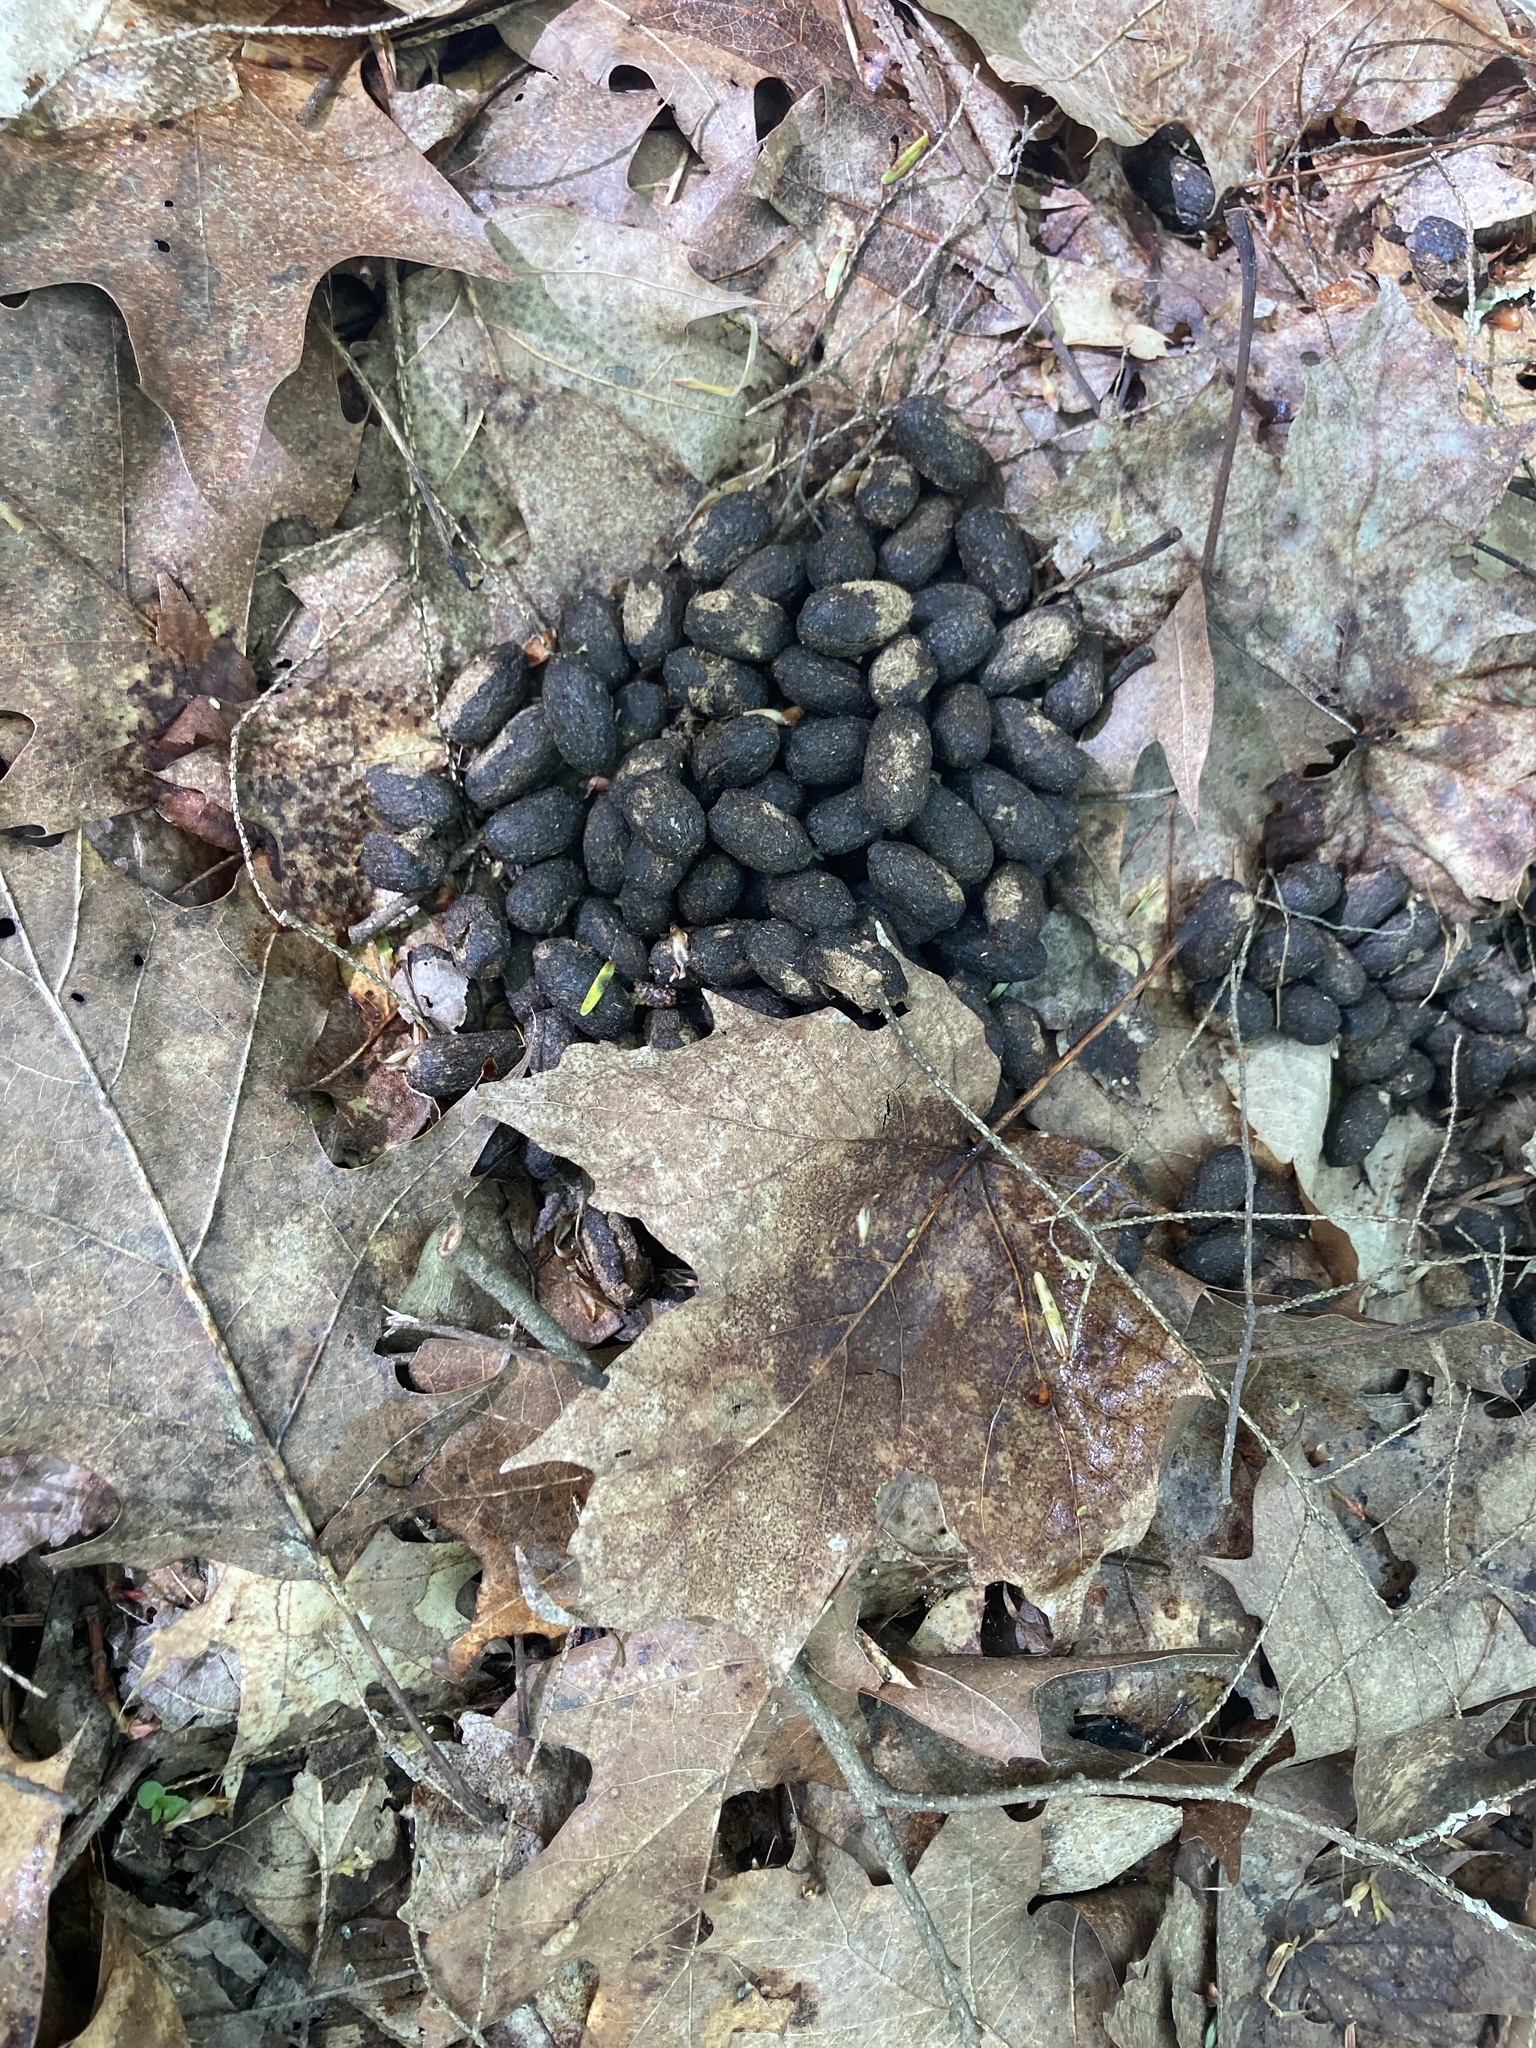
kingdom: Animalia
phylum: Chordata
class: Mammalia
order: Artiodactyla
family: Cervidae
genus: Odocoileus
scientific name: Odocoileus virginianus
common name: White-tailed deer
